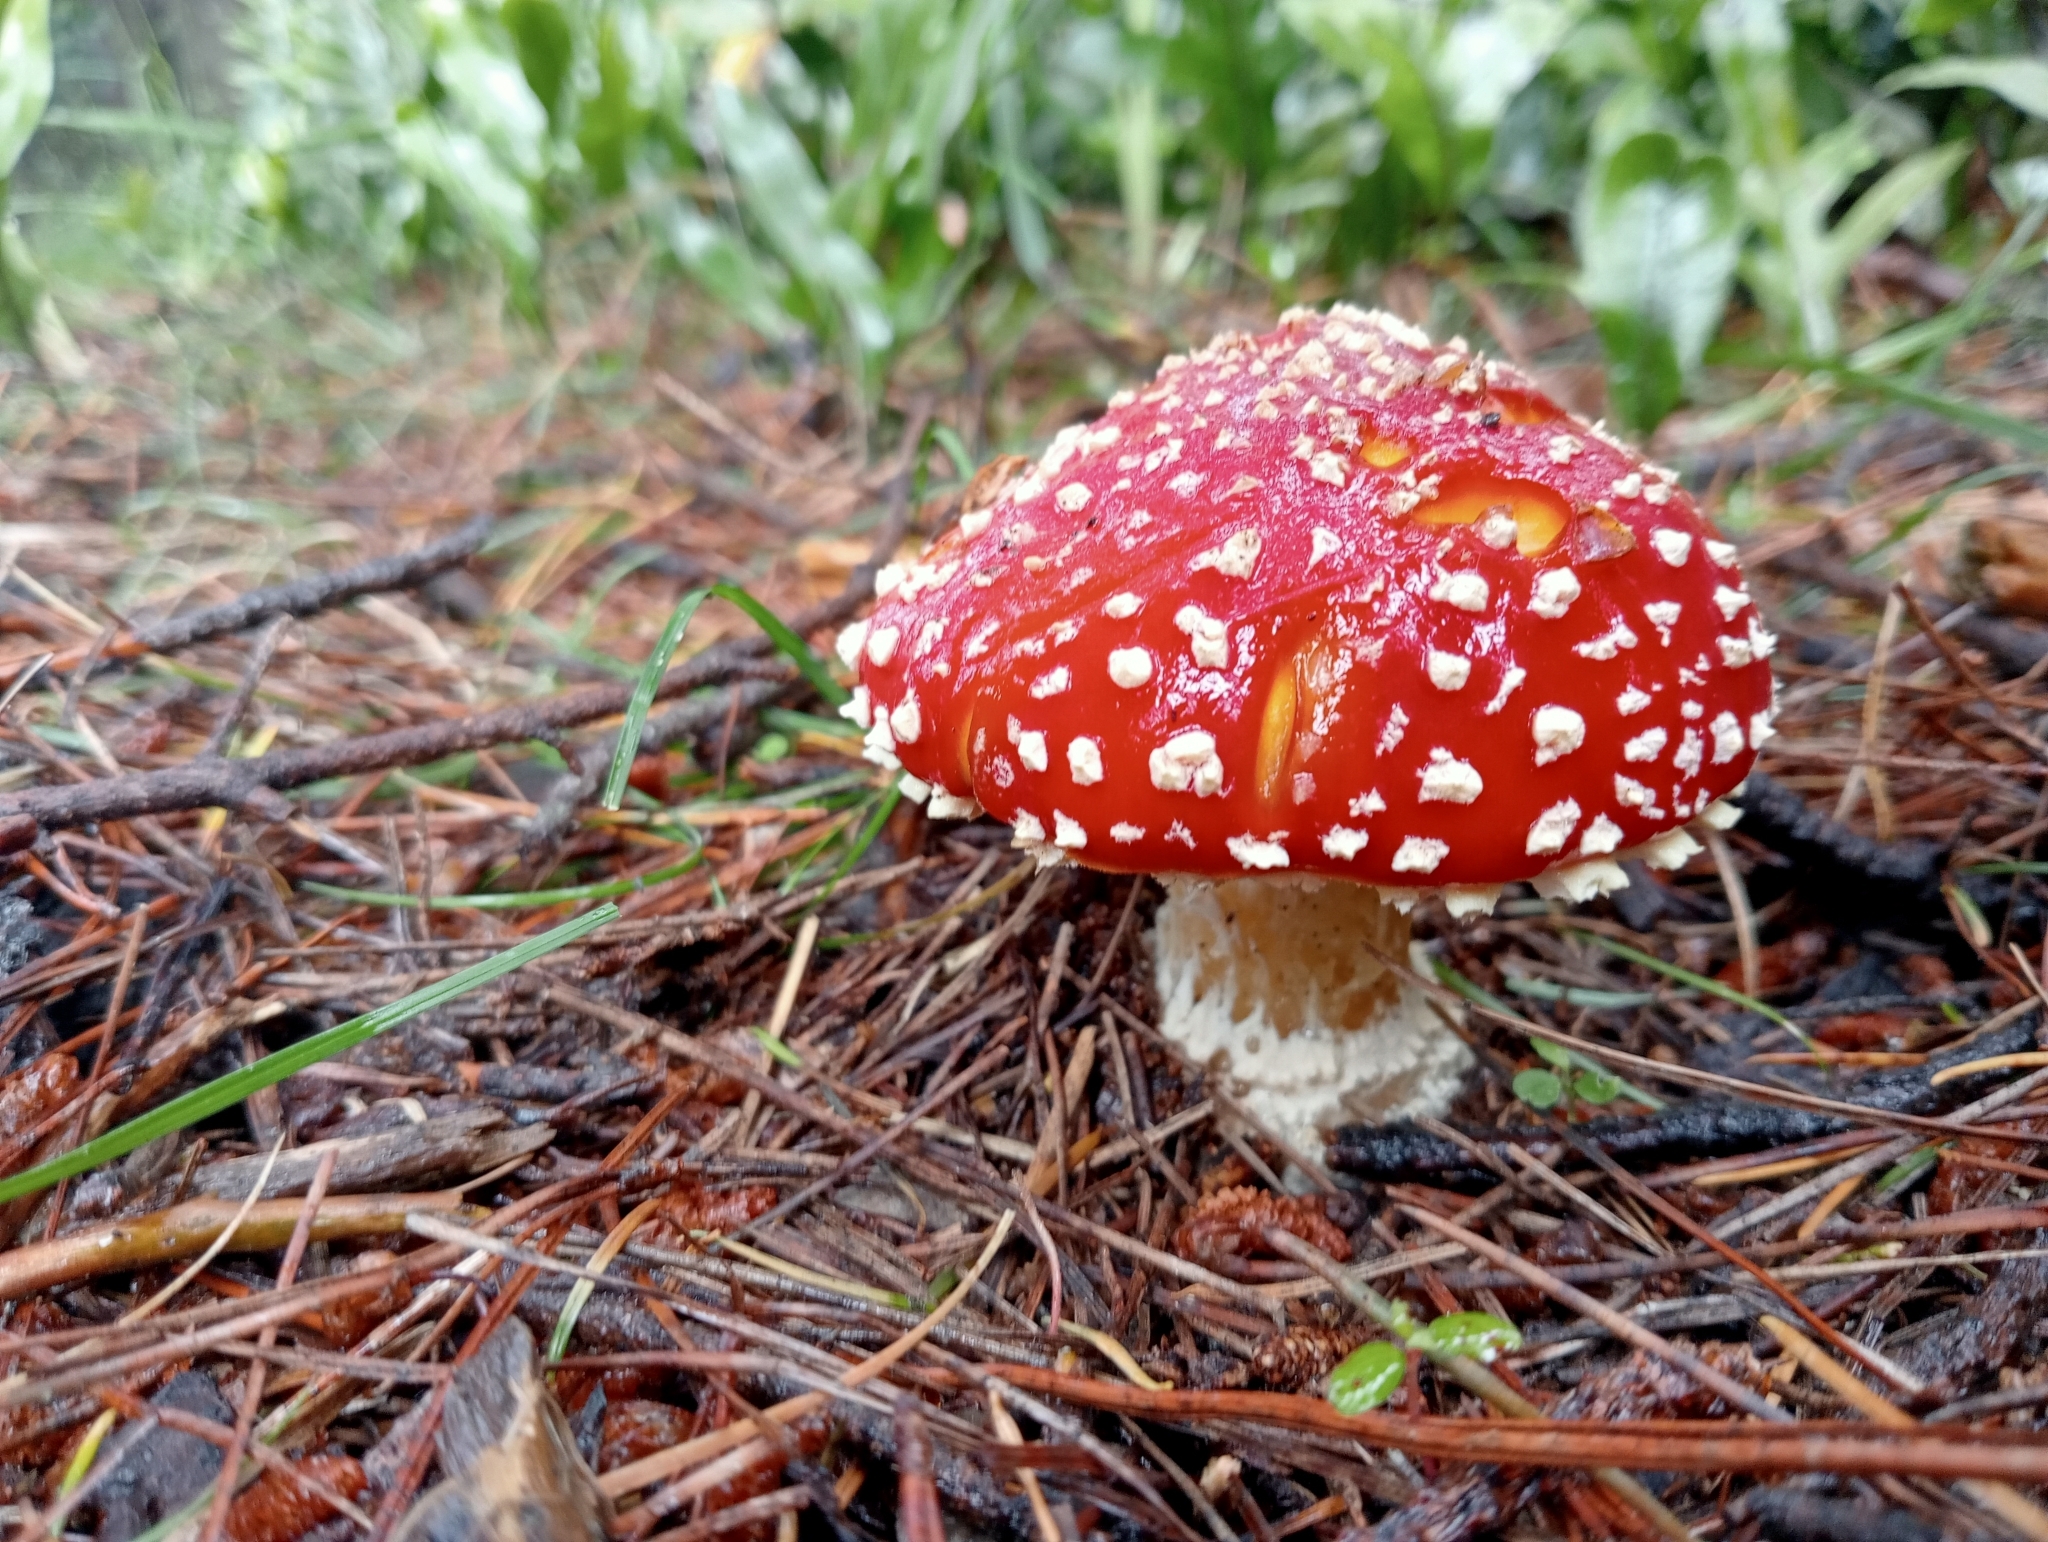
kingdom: Fungi
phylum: Basidiomycota
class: Agaricomycetes
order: Agaricales
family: Amanitaceae
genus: Amanita
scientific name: Amanita muscaria
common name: Fly agaric
